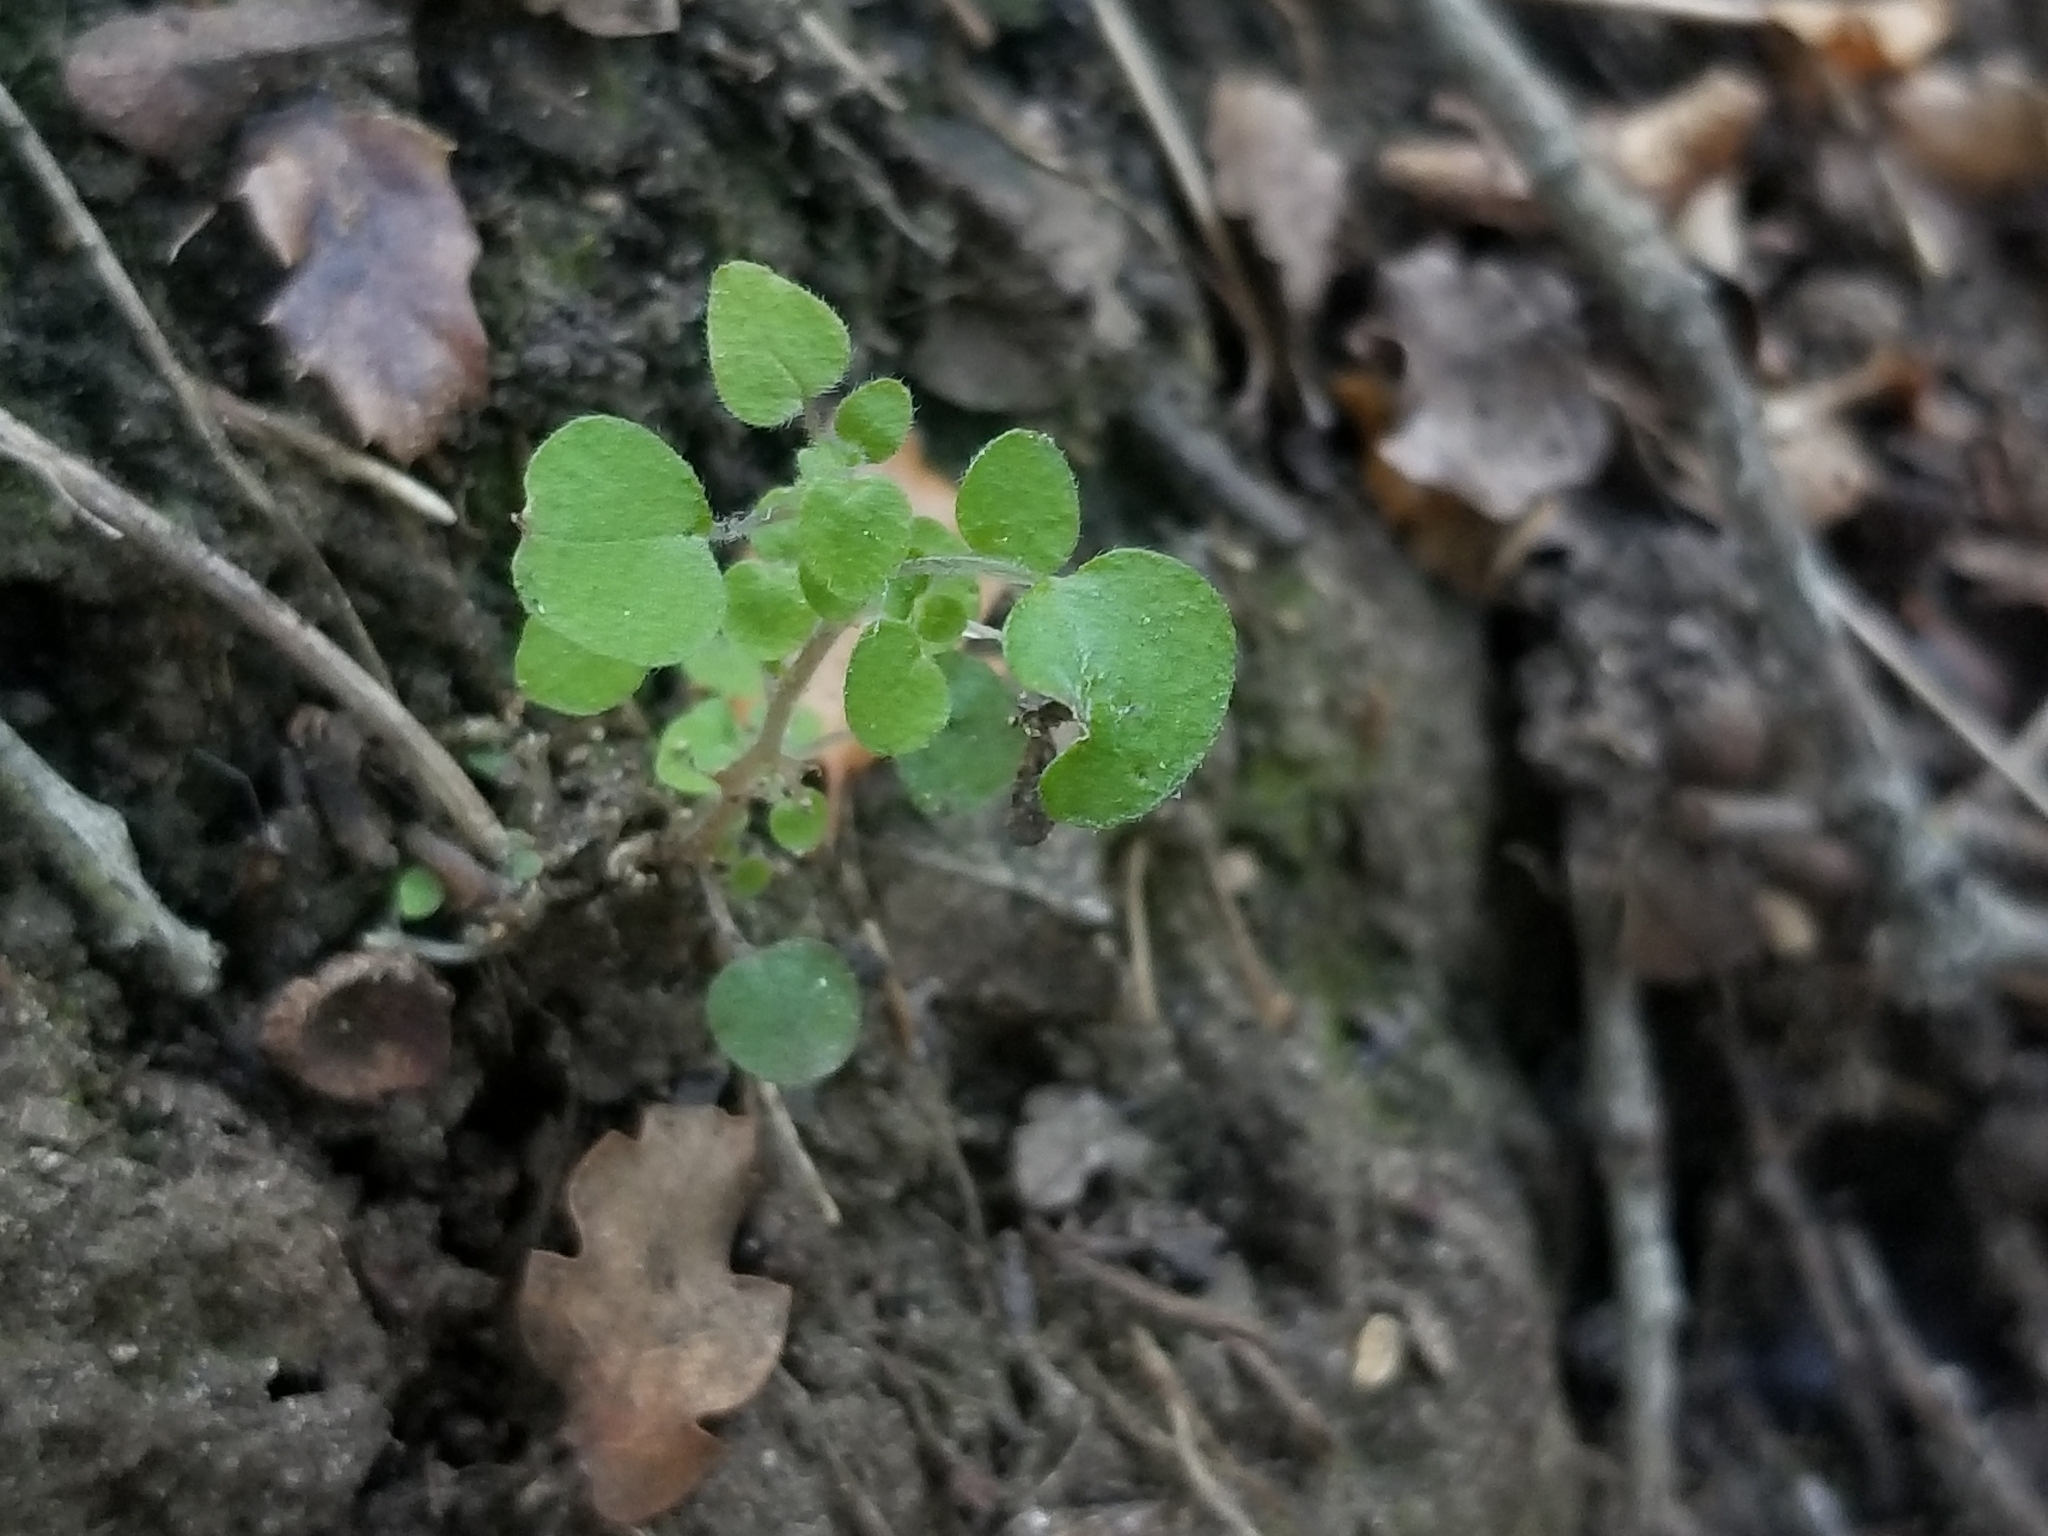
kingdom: Plantae
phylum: Tracheophyta
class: Magnoliopsida
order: Rosales
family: Urticaceae
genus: Parietaria
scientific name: Parietaria hespera
